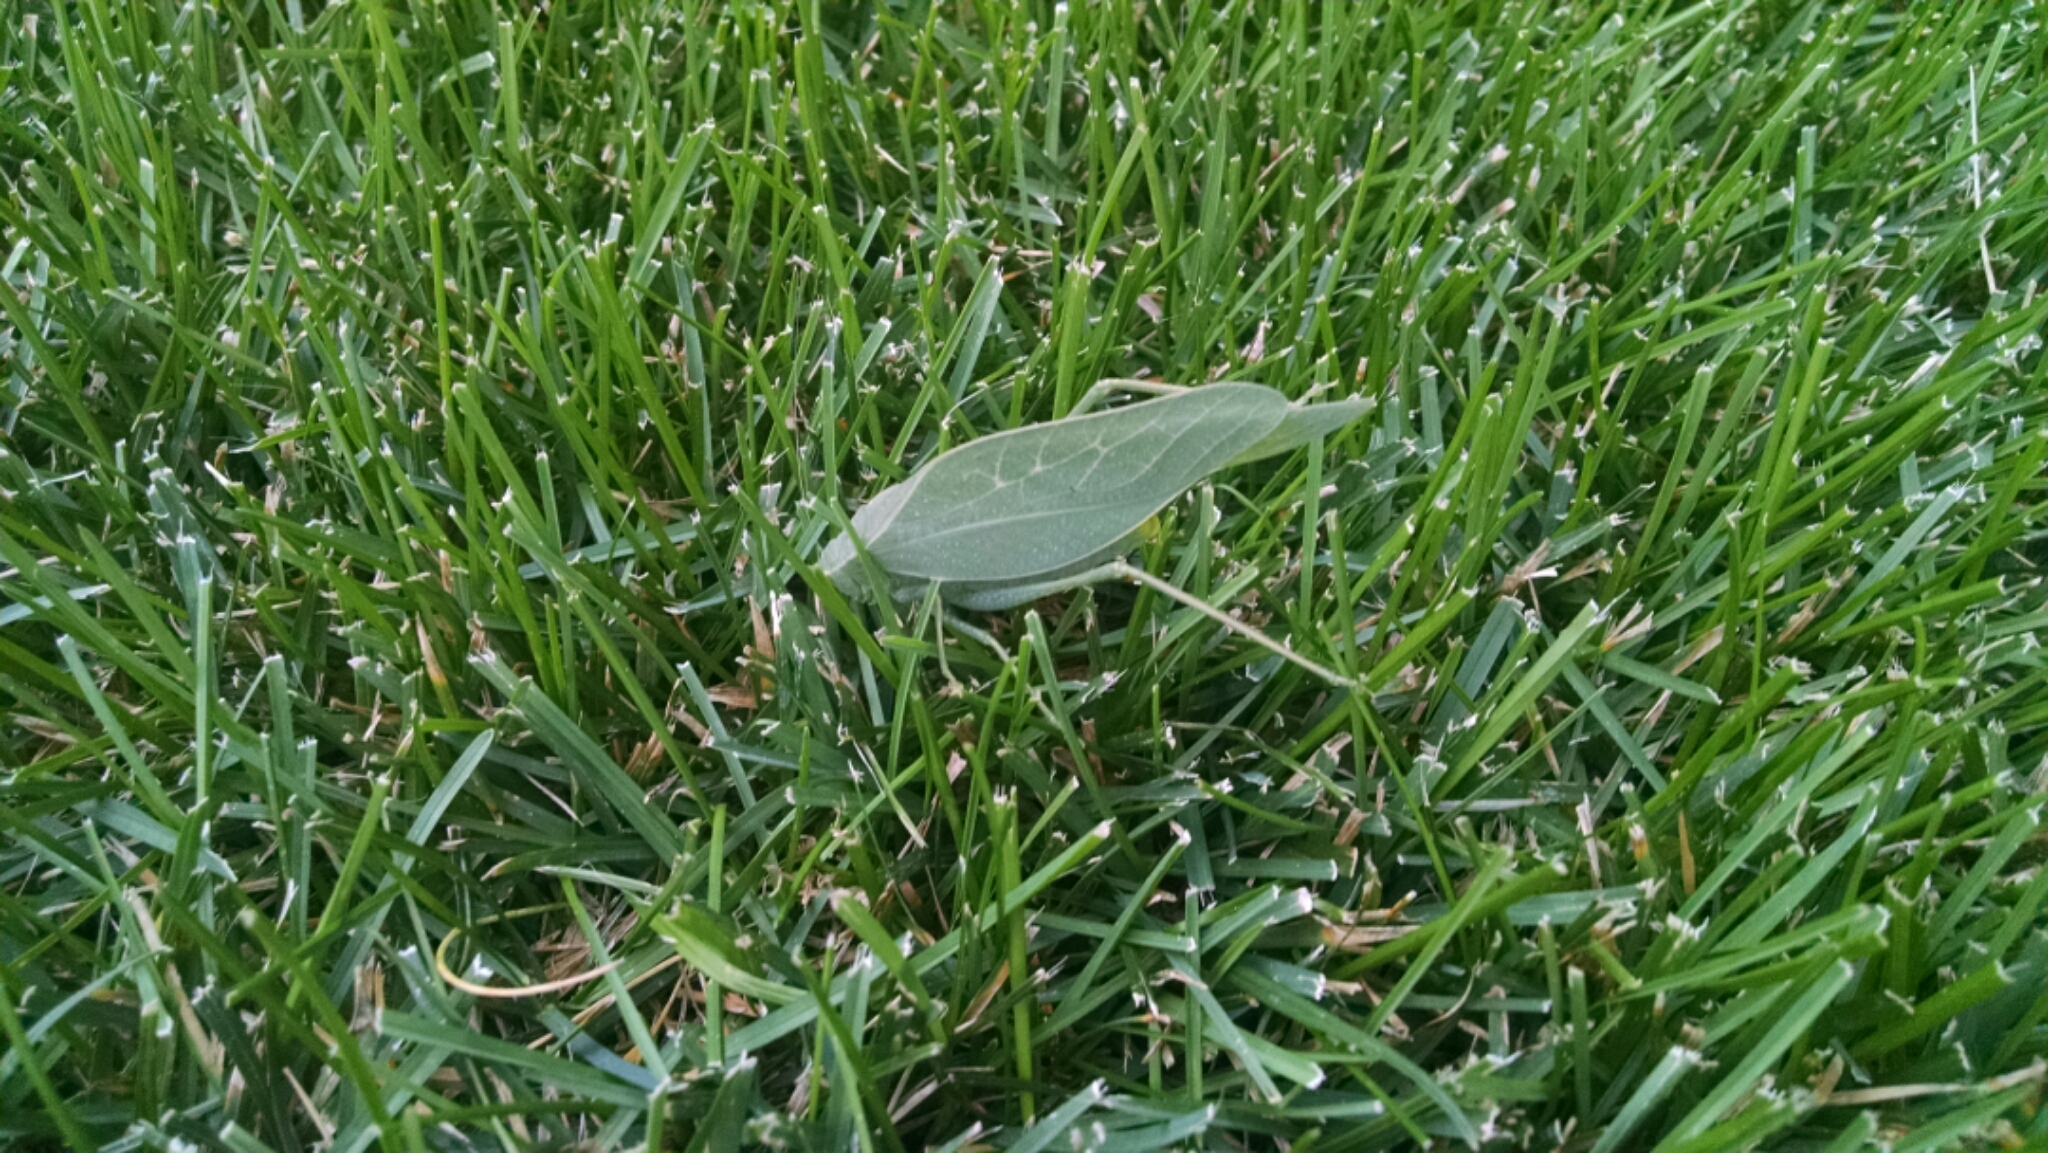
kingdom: Animalia
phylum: Arthropoda
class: Insecta
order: Orthoptera
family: Tettigoniidae
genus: Microcentrum
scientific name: Microcentrum rhombifolium
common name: Broad-winged katydid
